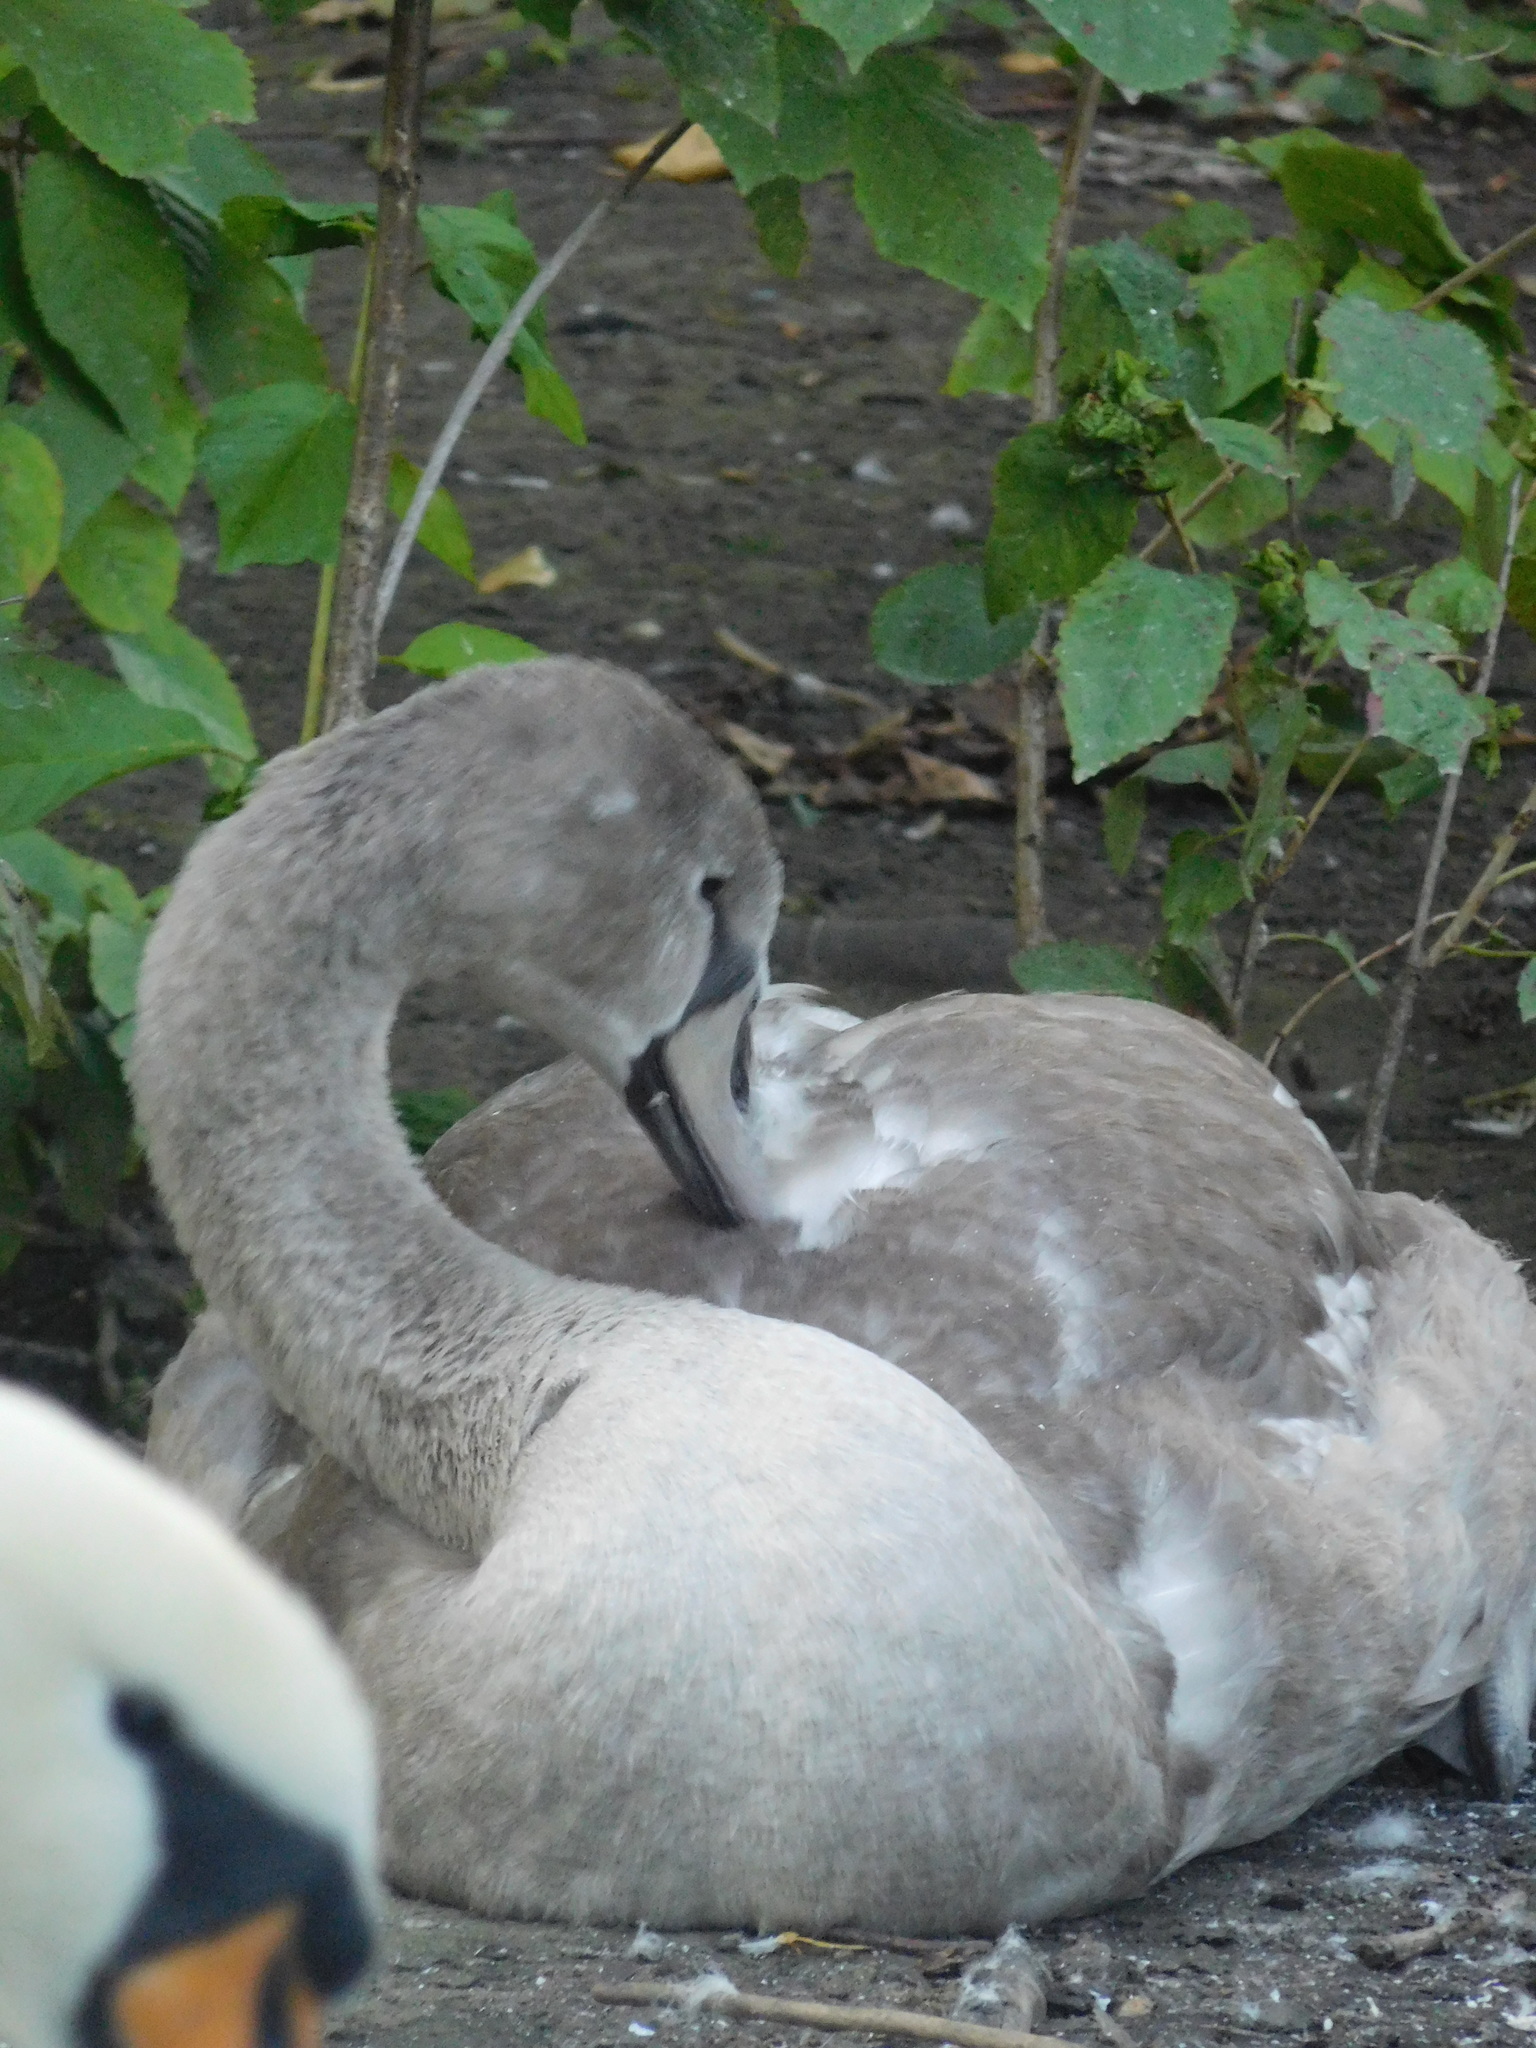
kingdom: Animalia
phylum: Chordata
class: Aves
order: Anseriformes
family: Anatidae
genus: Cygnus
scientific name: Cygnus olor
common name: Mute swan
